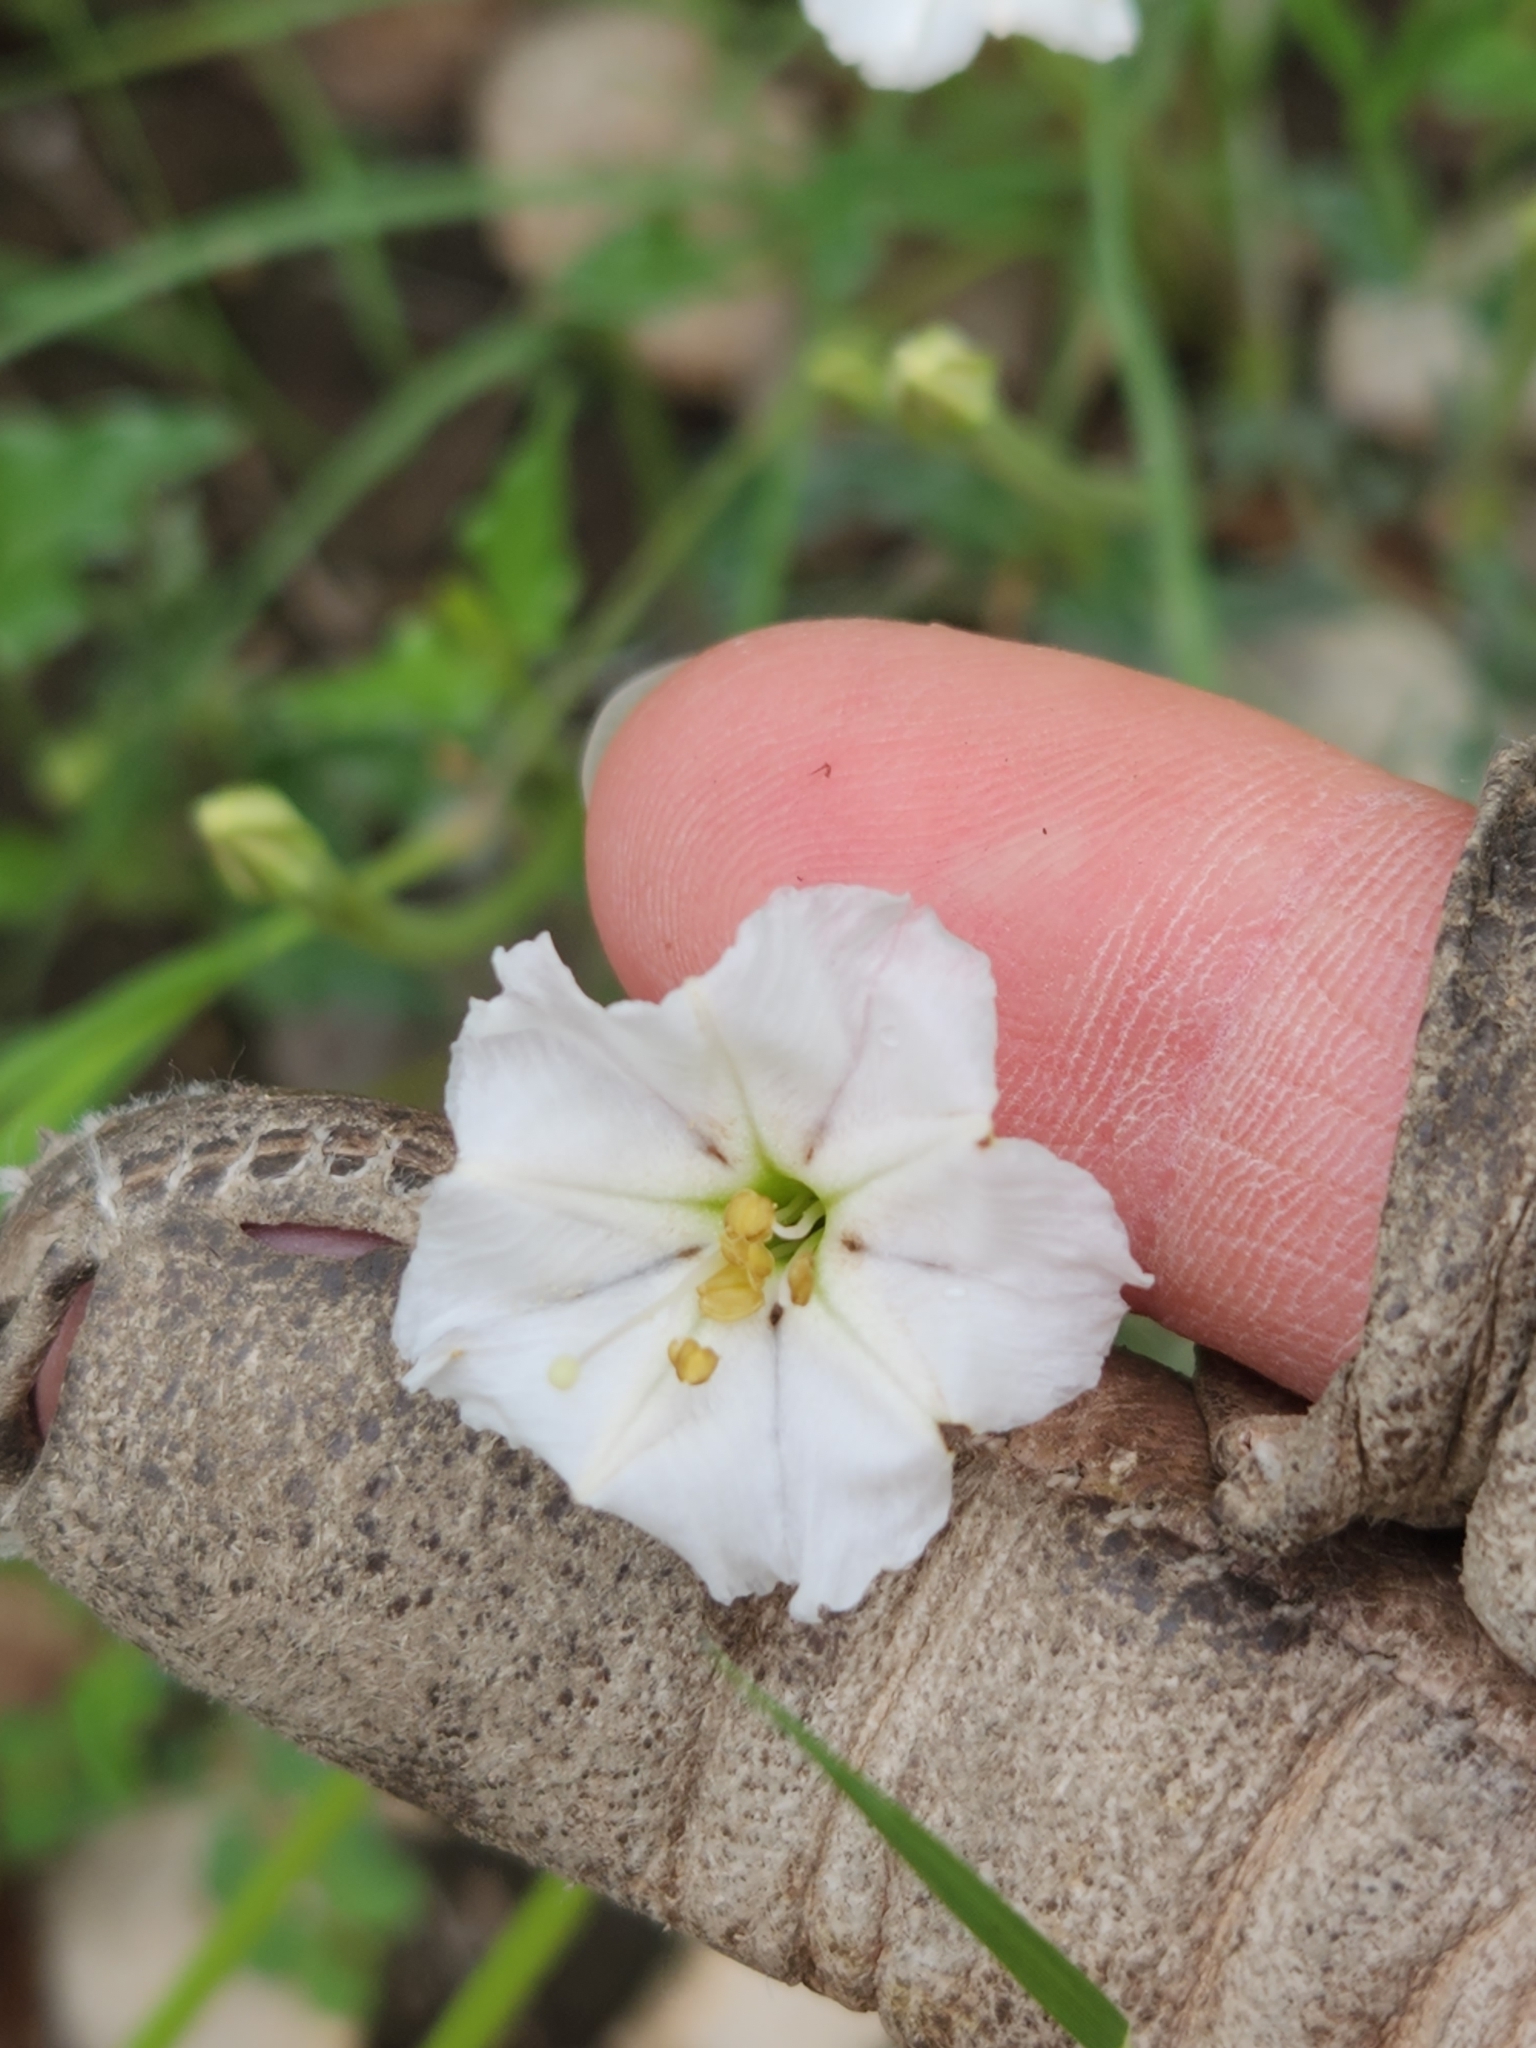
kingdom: Plantae
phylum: Tracheophyta
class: Magnoliopsida
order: Caryophyllales
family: Nyctaginaceae
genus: Acleisanthes
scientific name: Acleisanthes longiflora
